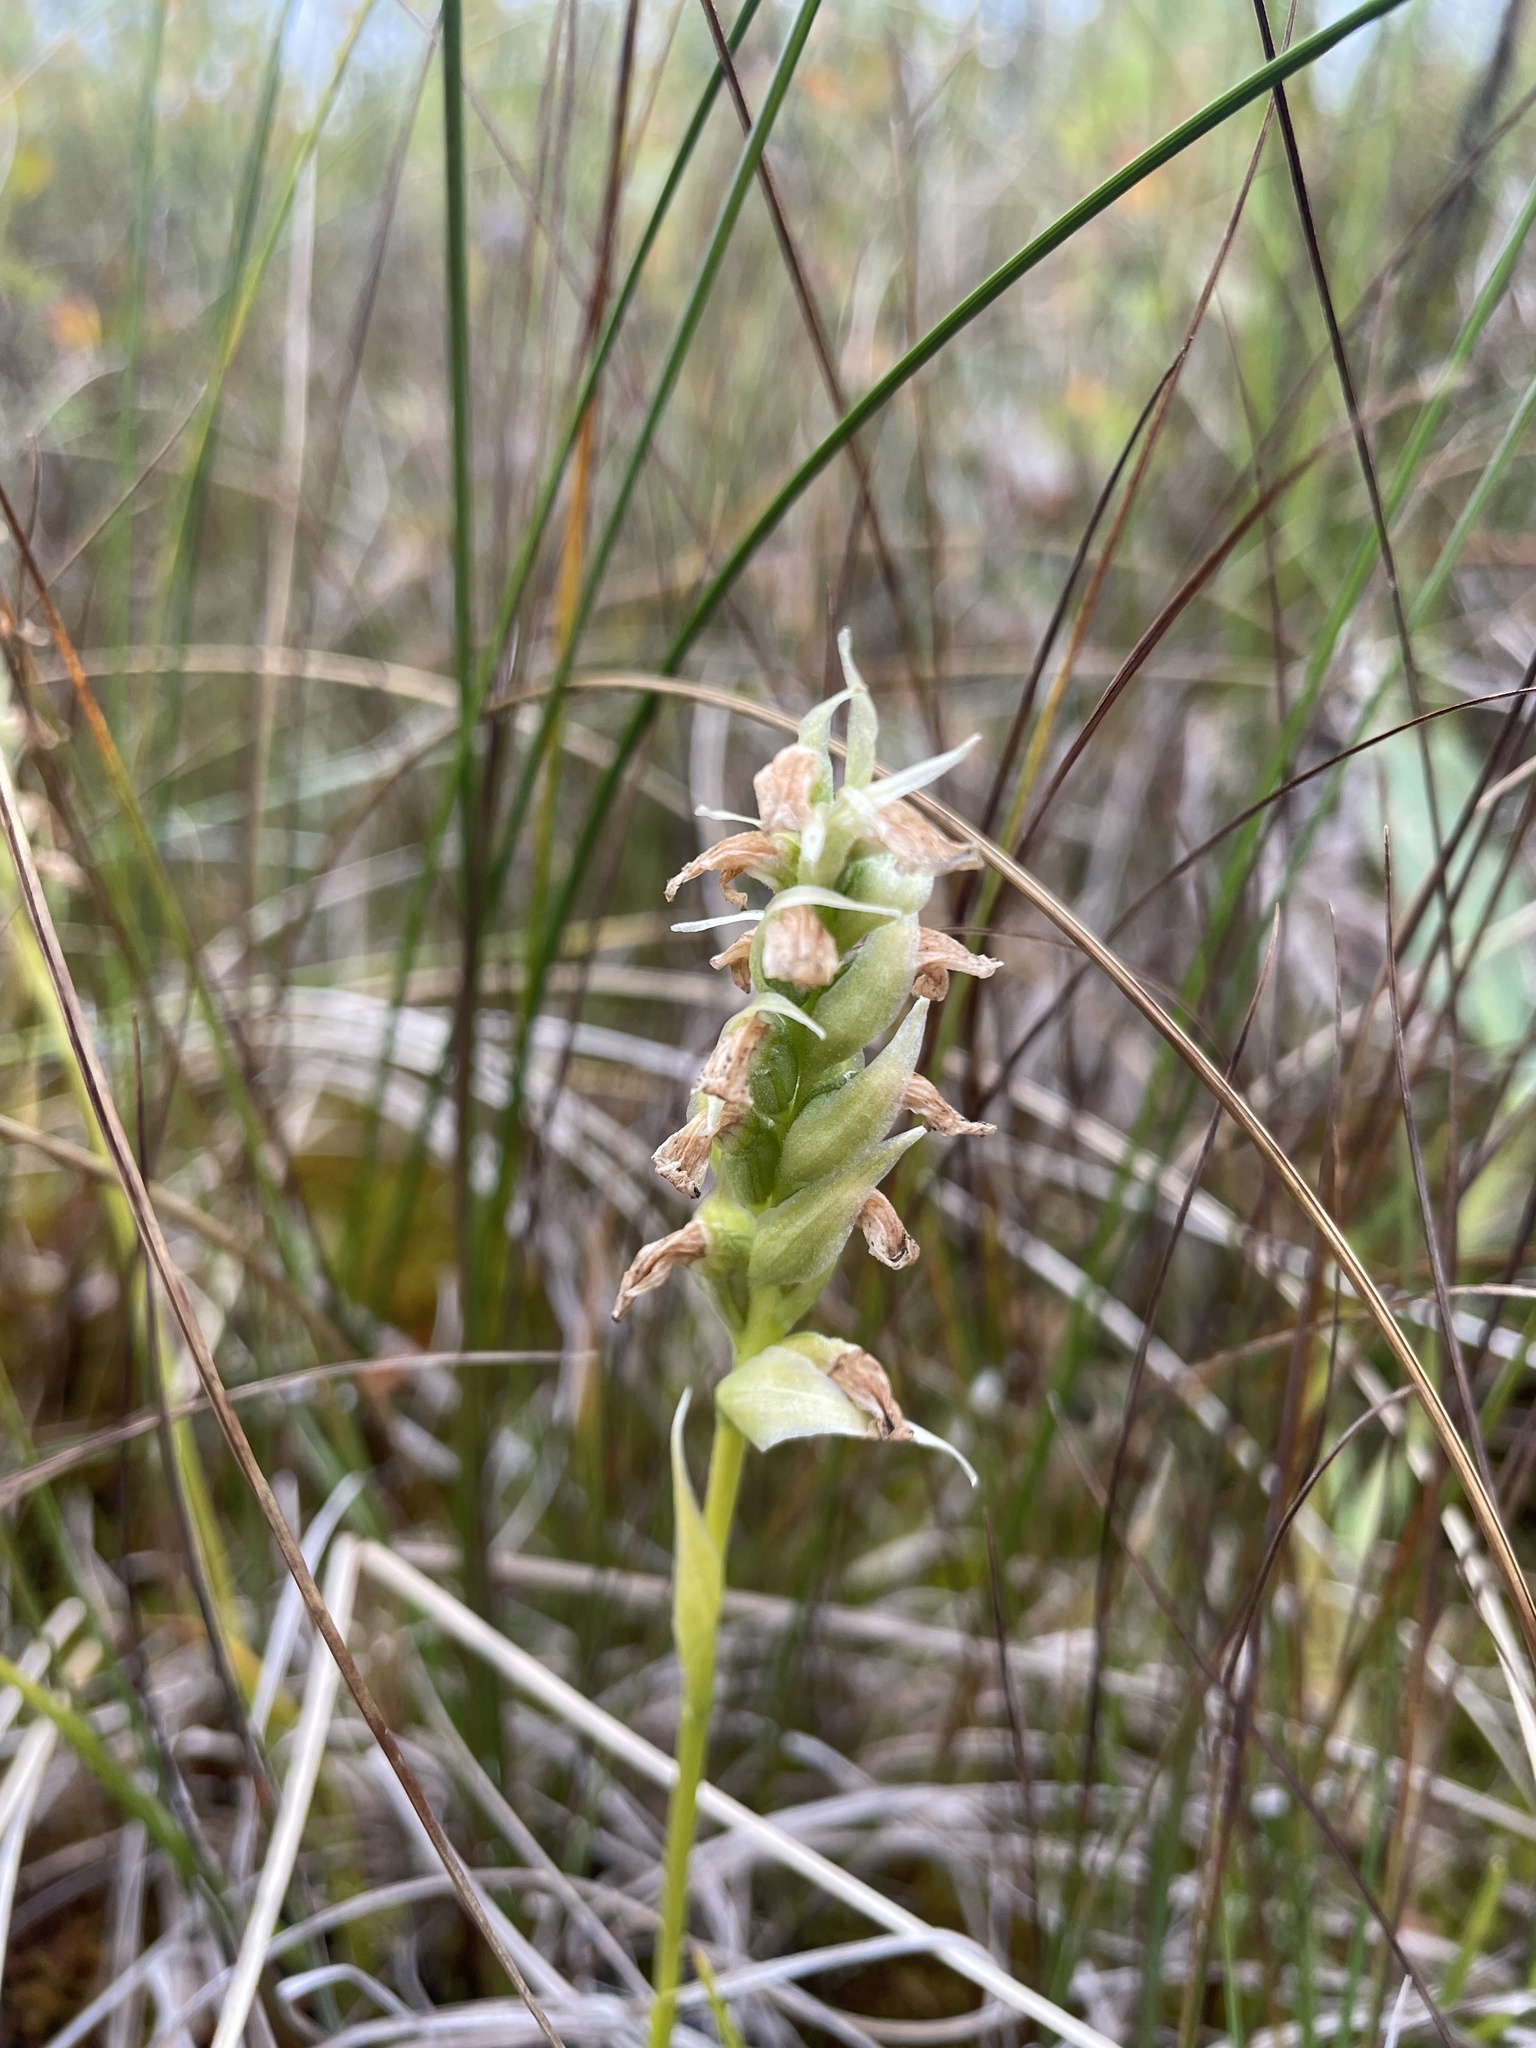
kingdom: Plantae
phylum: Tracheophyta
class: Liliopsida
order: Asparagales
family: Orchidaceae
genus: Spiranthes
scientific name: Spiranthes romanzoffiana
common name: Irish lady's-tresses
